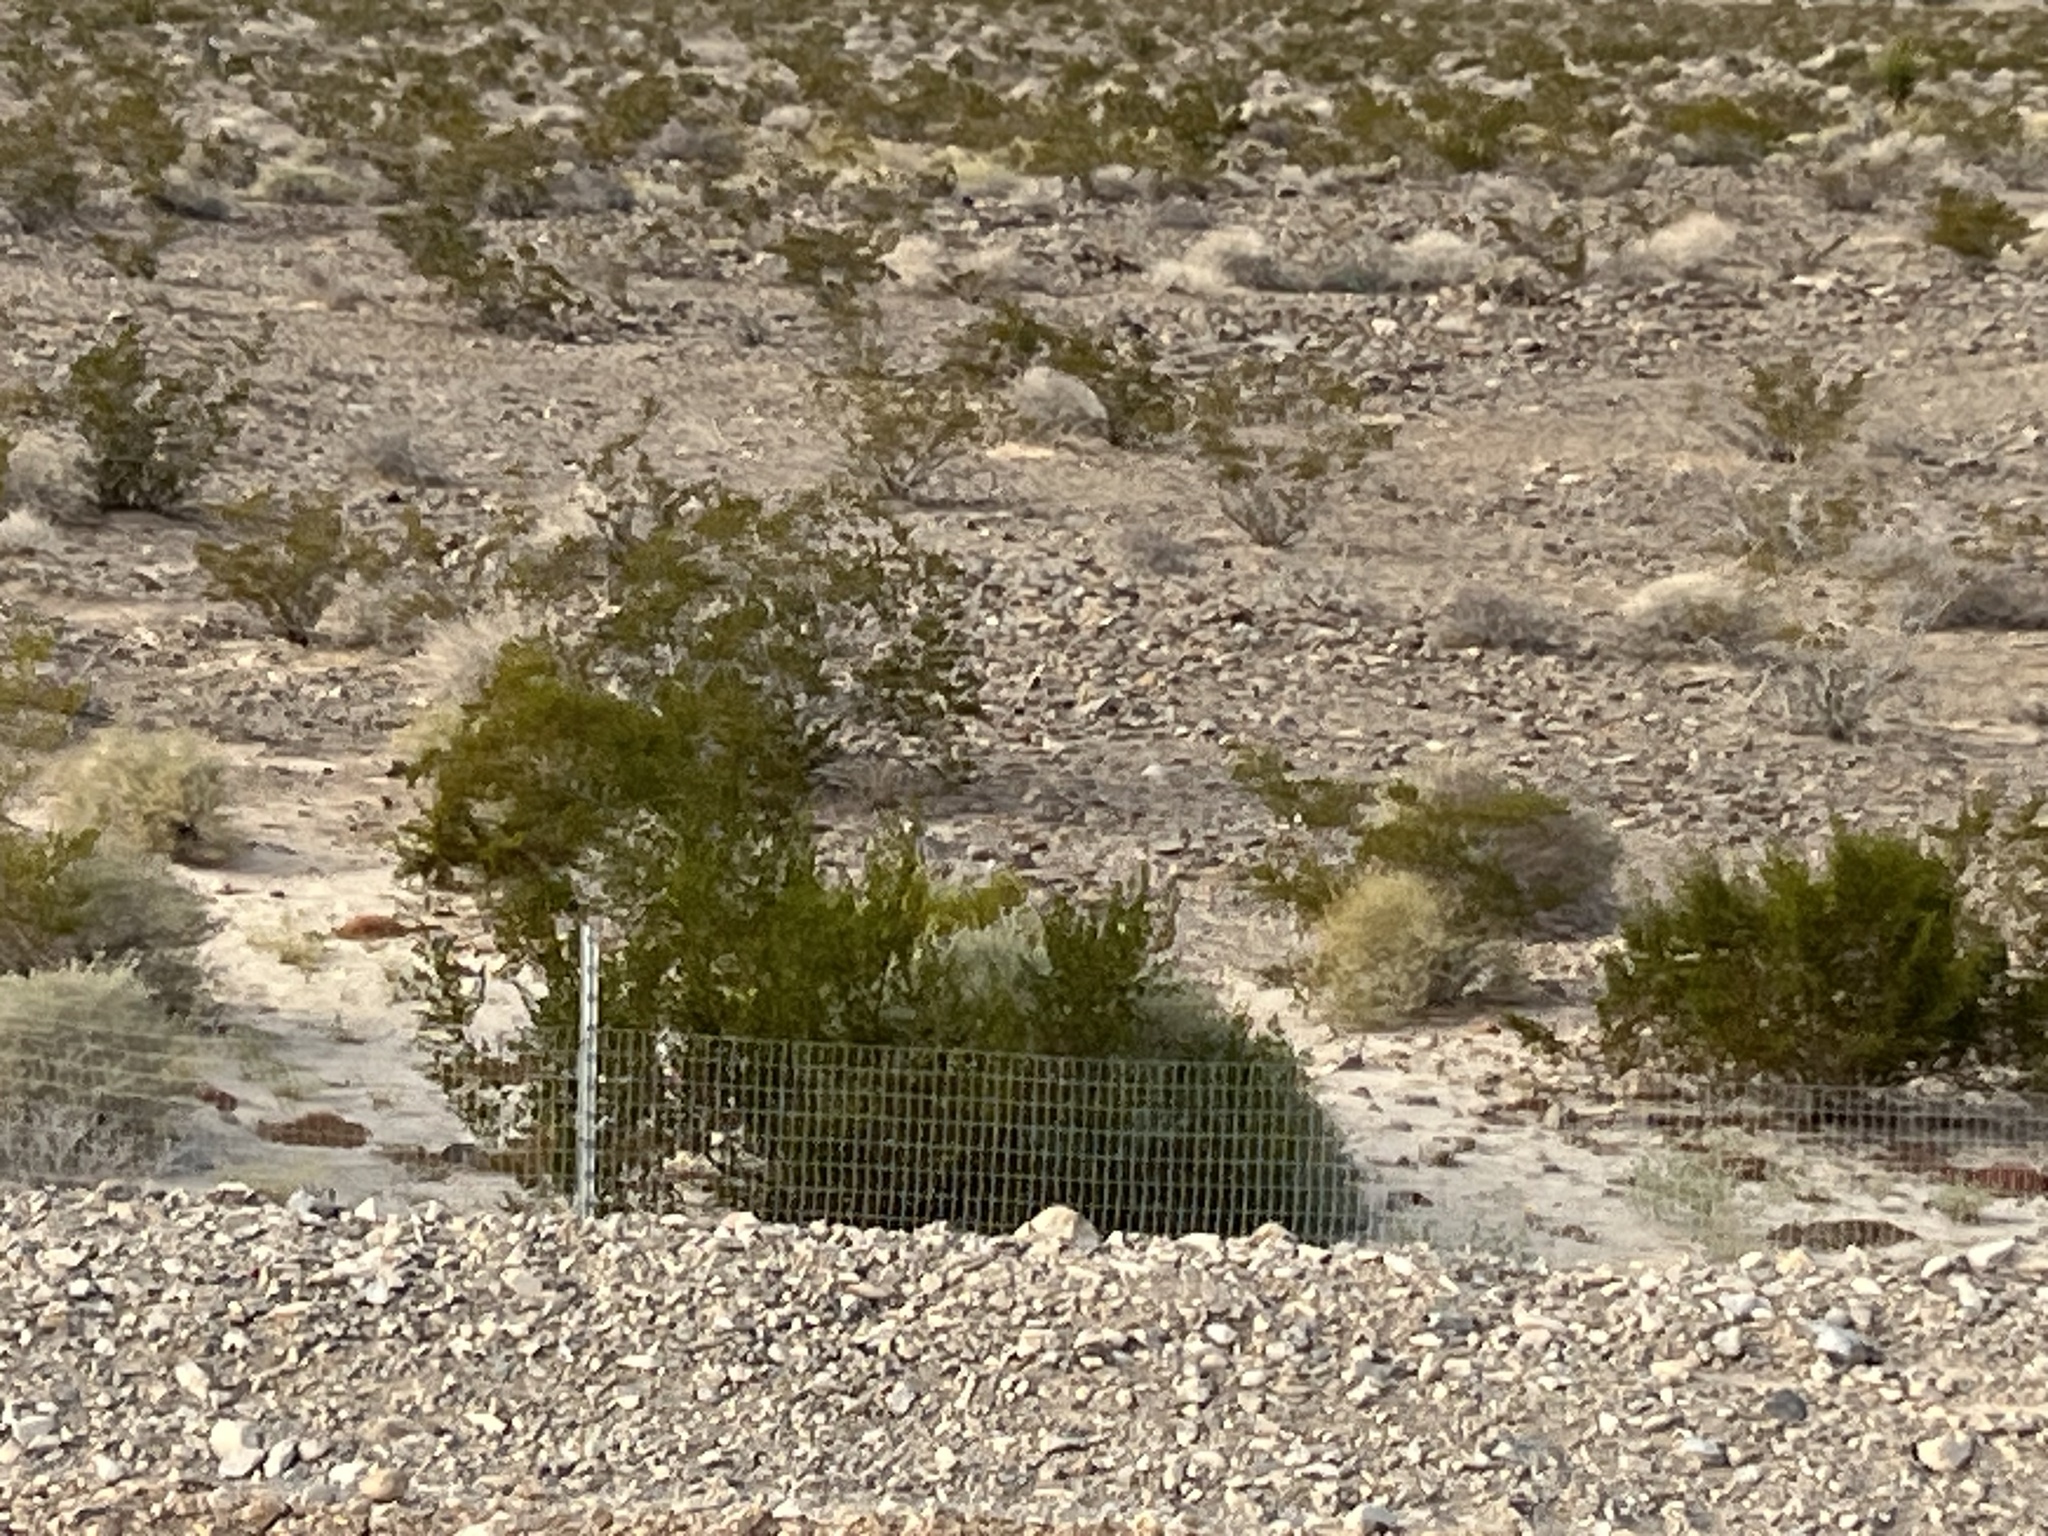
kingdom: Plantae
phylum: Tracheophyta
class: Magnoliopsida
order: Zygophyllales
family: Zygophyllaceae
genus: Larrea
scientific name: Larrea tridentata
